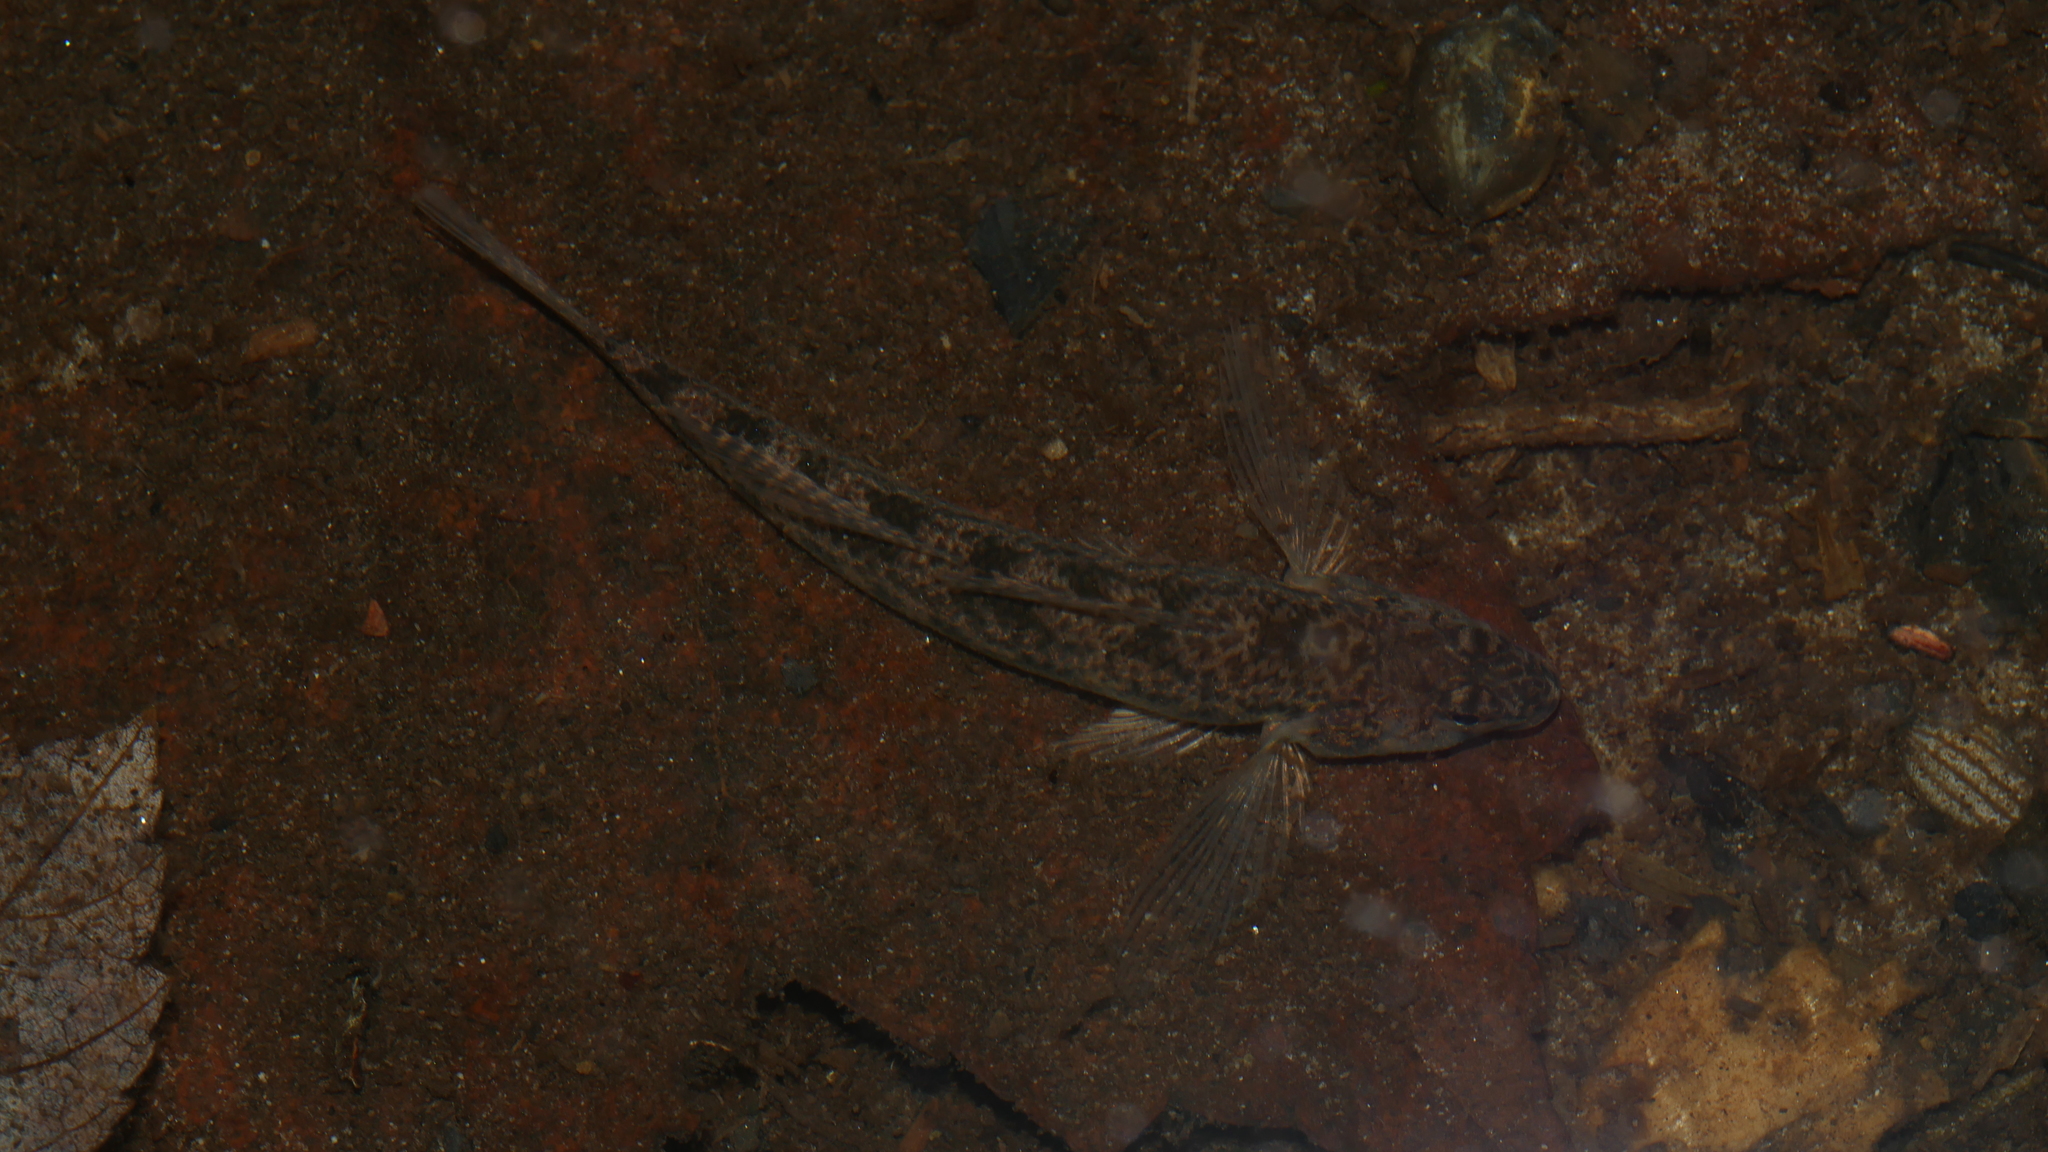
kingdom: Animalia
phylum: Chordata
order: Perciformes
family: Percidae
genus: Etheostoma
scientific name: Etheostoma olmstedi
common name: Tessellated darter
